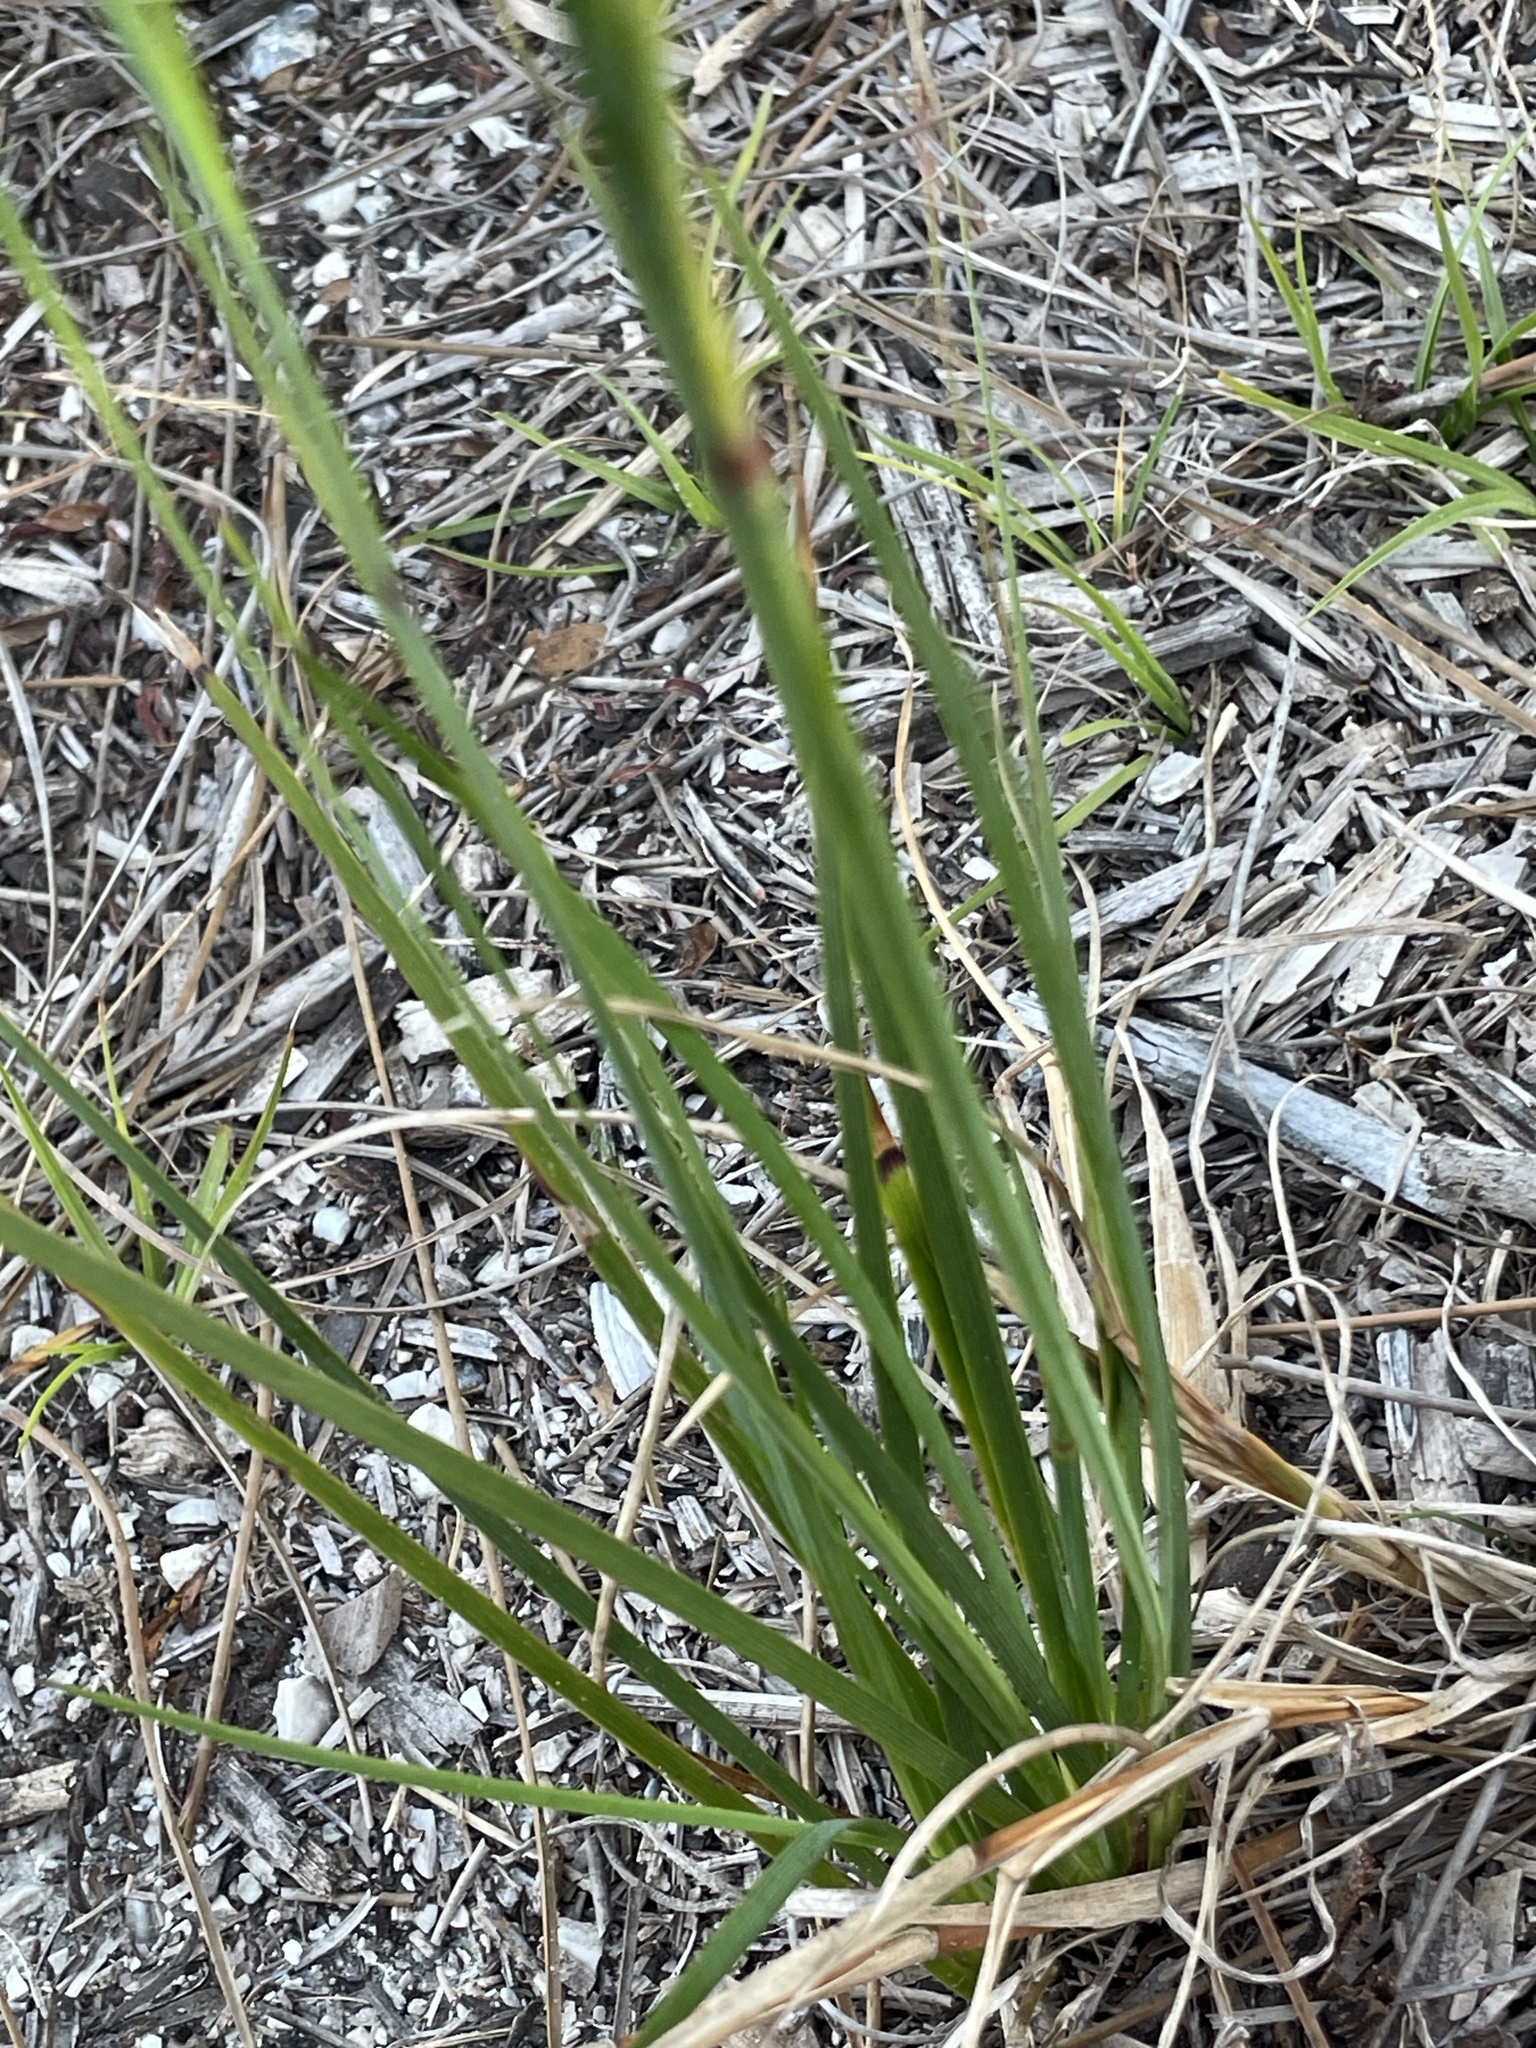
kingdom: Plantae
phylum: Tracheophyta
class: Liliopsida
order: Asparagales
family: Iridaceae
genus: Sisyrinchium
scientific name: Sisyrinchium xerophyllum
